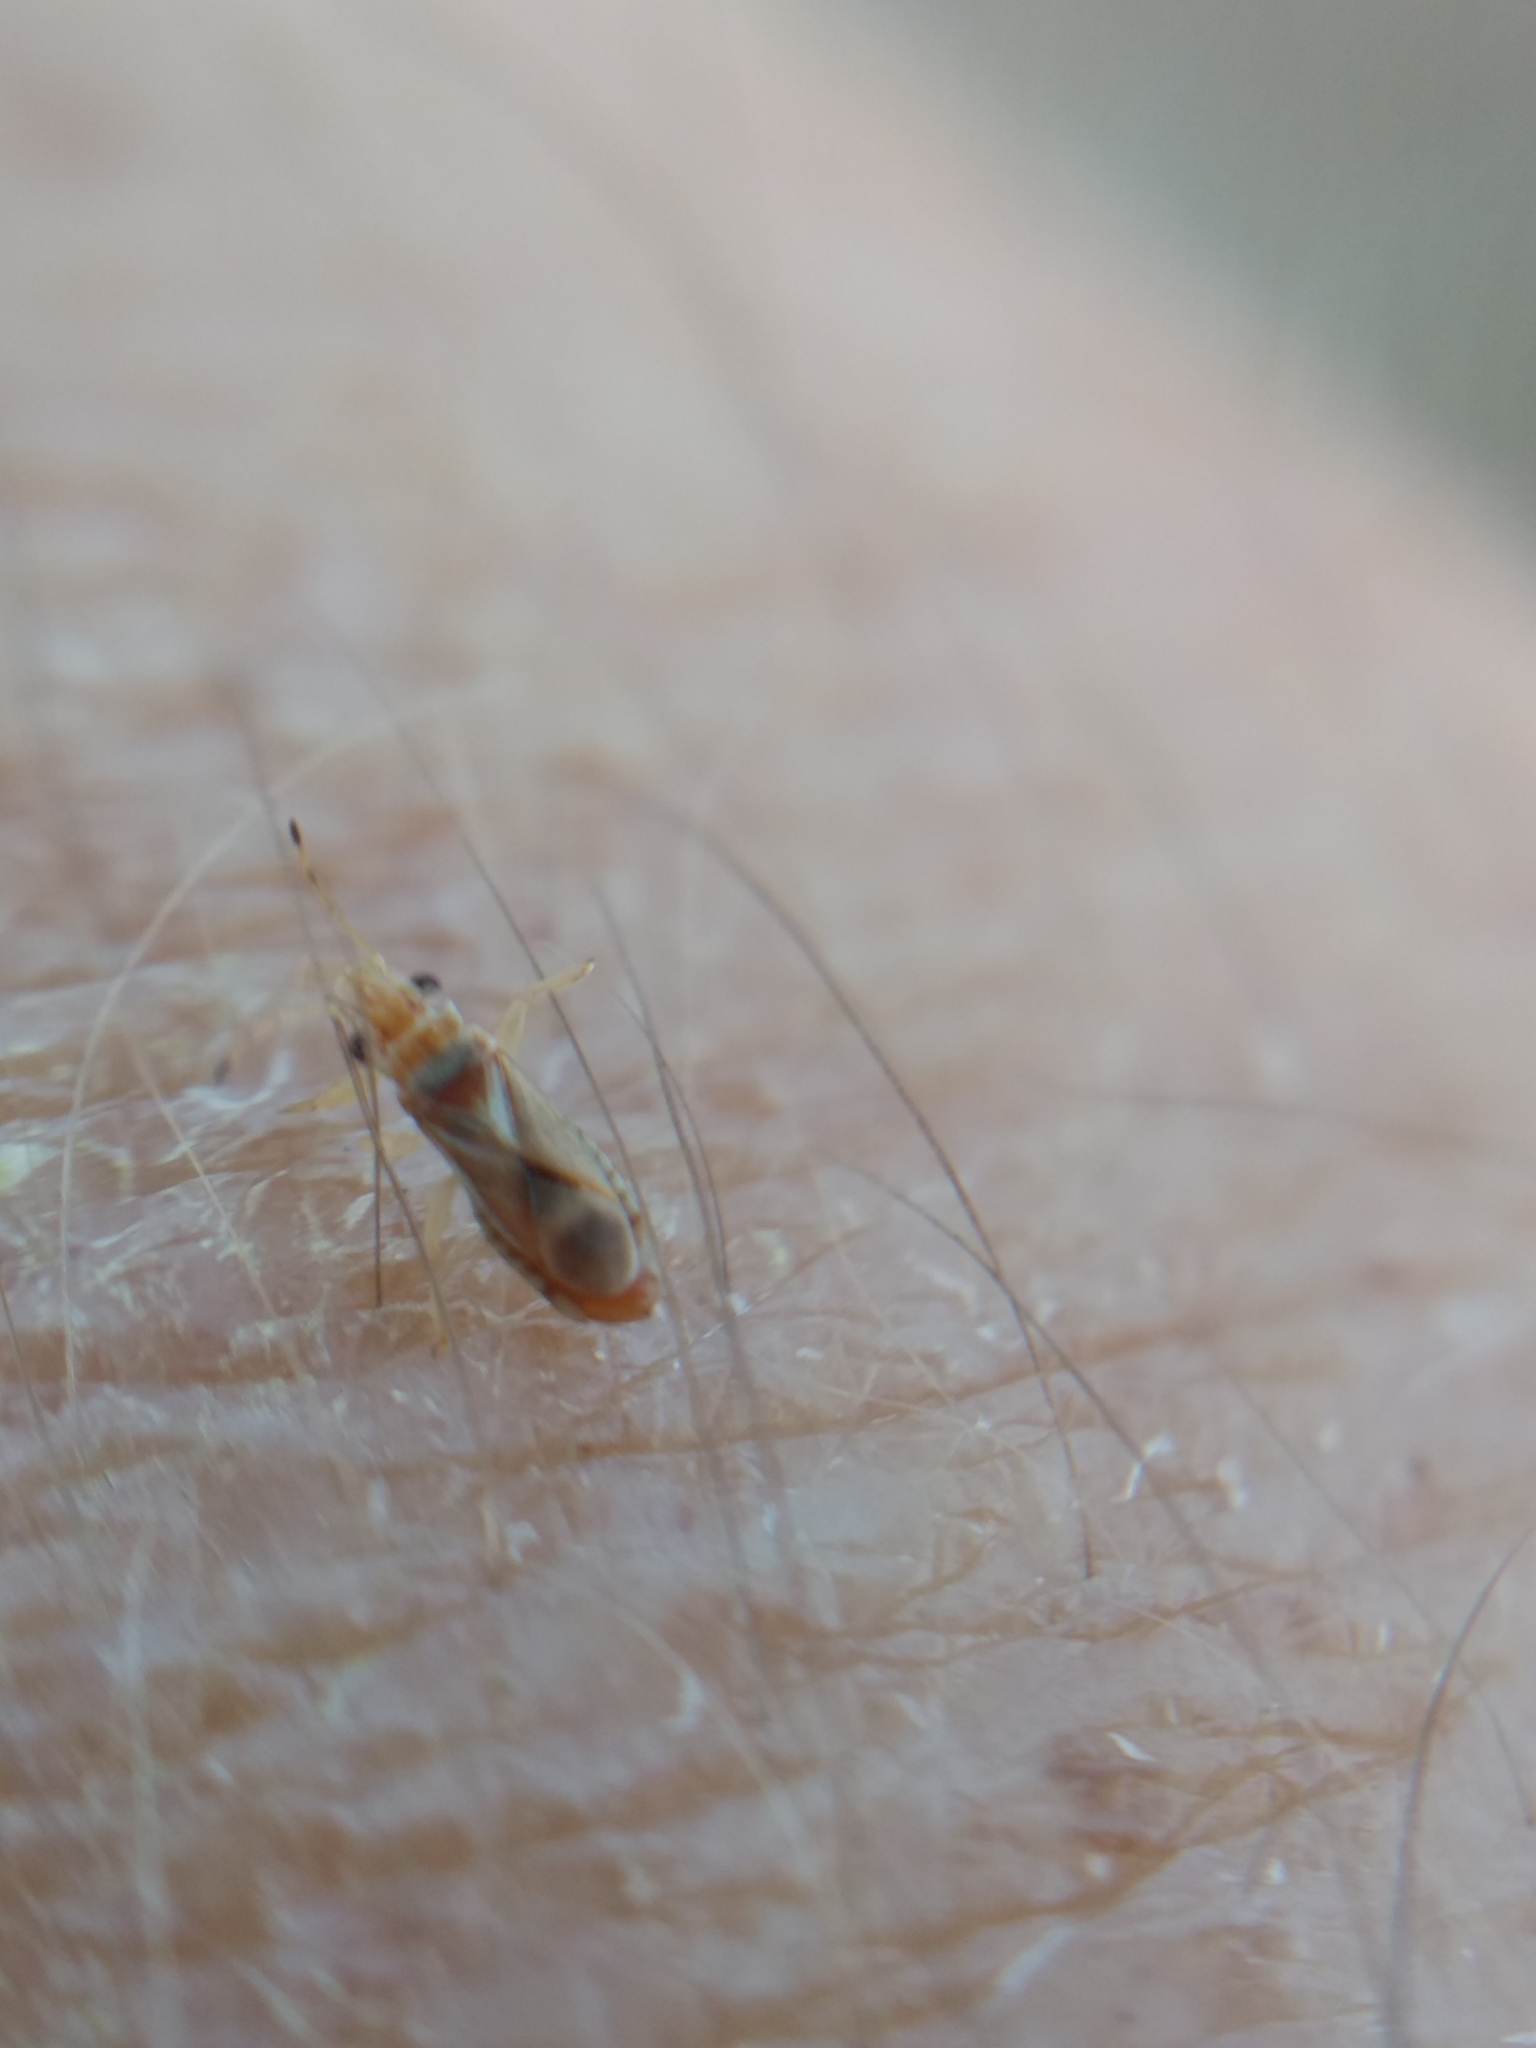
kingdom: Animalia
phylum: Arthropoda
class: Insecta
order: Hemiptera
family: Thaumastocoridae
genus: Thaumastocoris
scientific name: Thaumastocoris peregrinus
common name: Bronze bug
